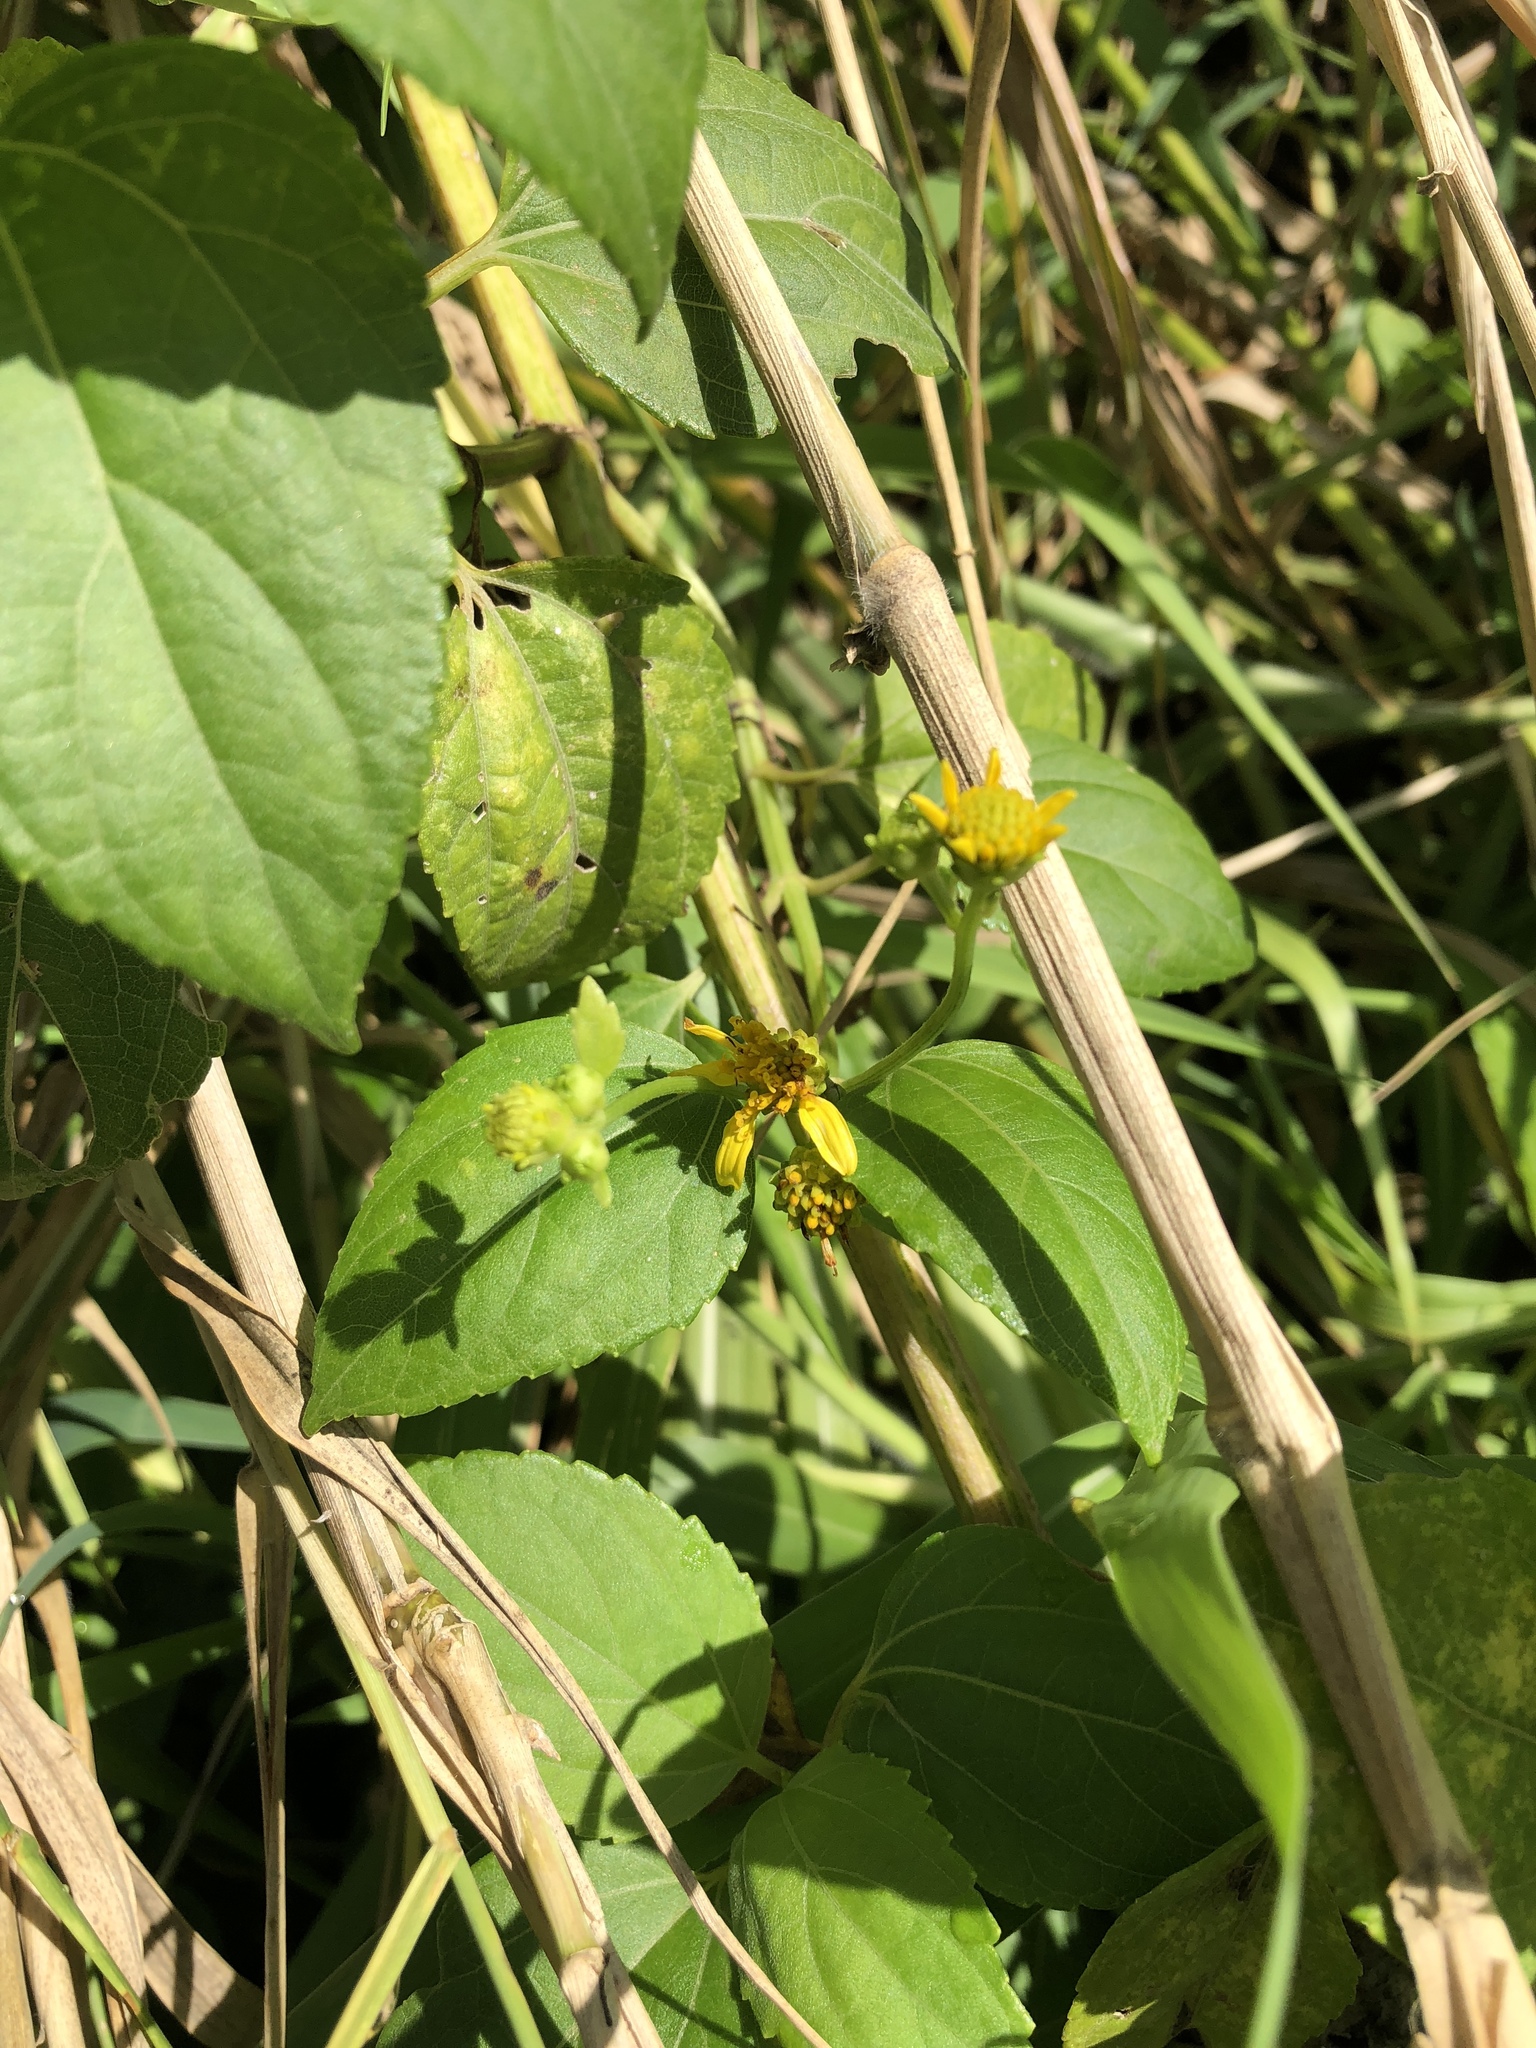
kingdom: Plantae
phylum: Tracheophyta
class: Magnoliopsida
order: Asterales
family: Asteraceae
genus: Wollastonia
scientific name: Wollastonia biflora
